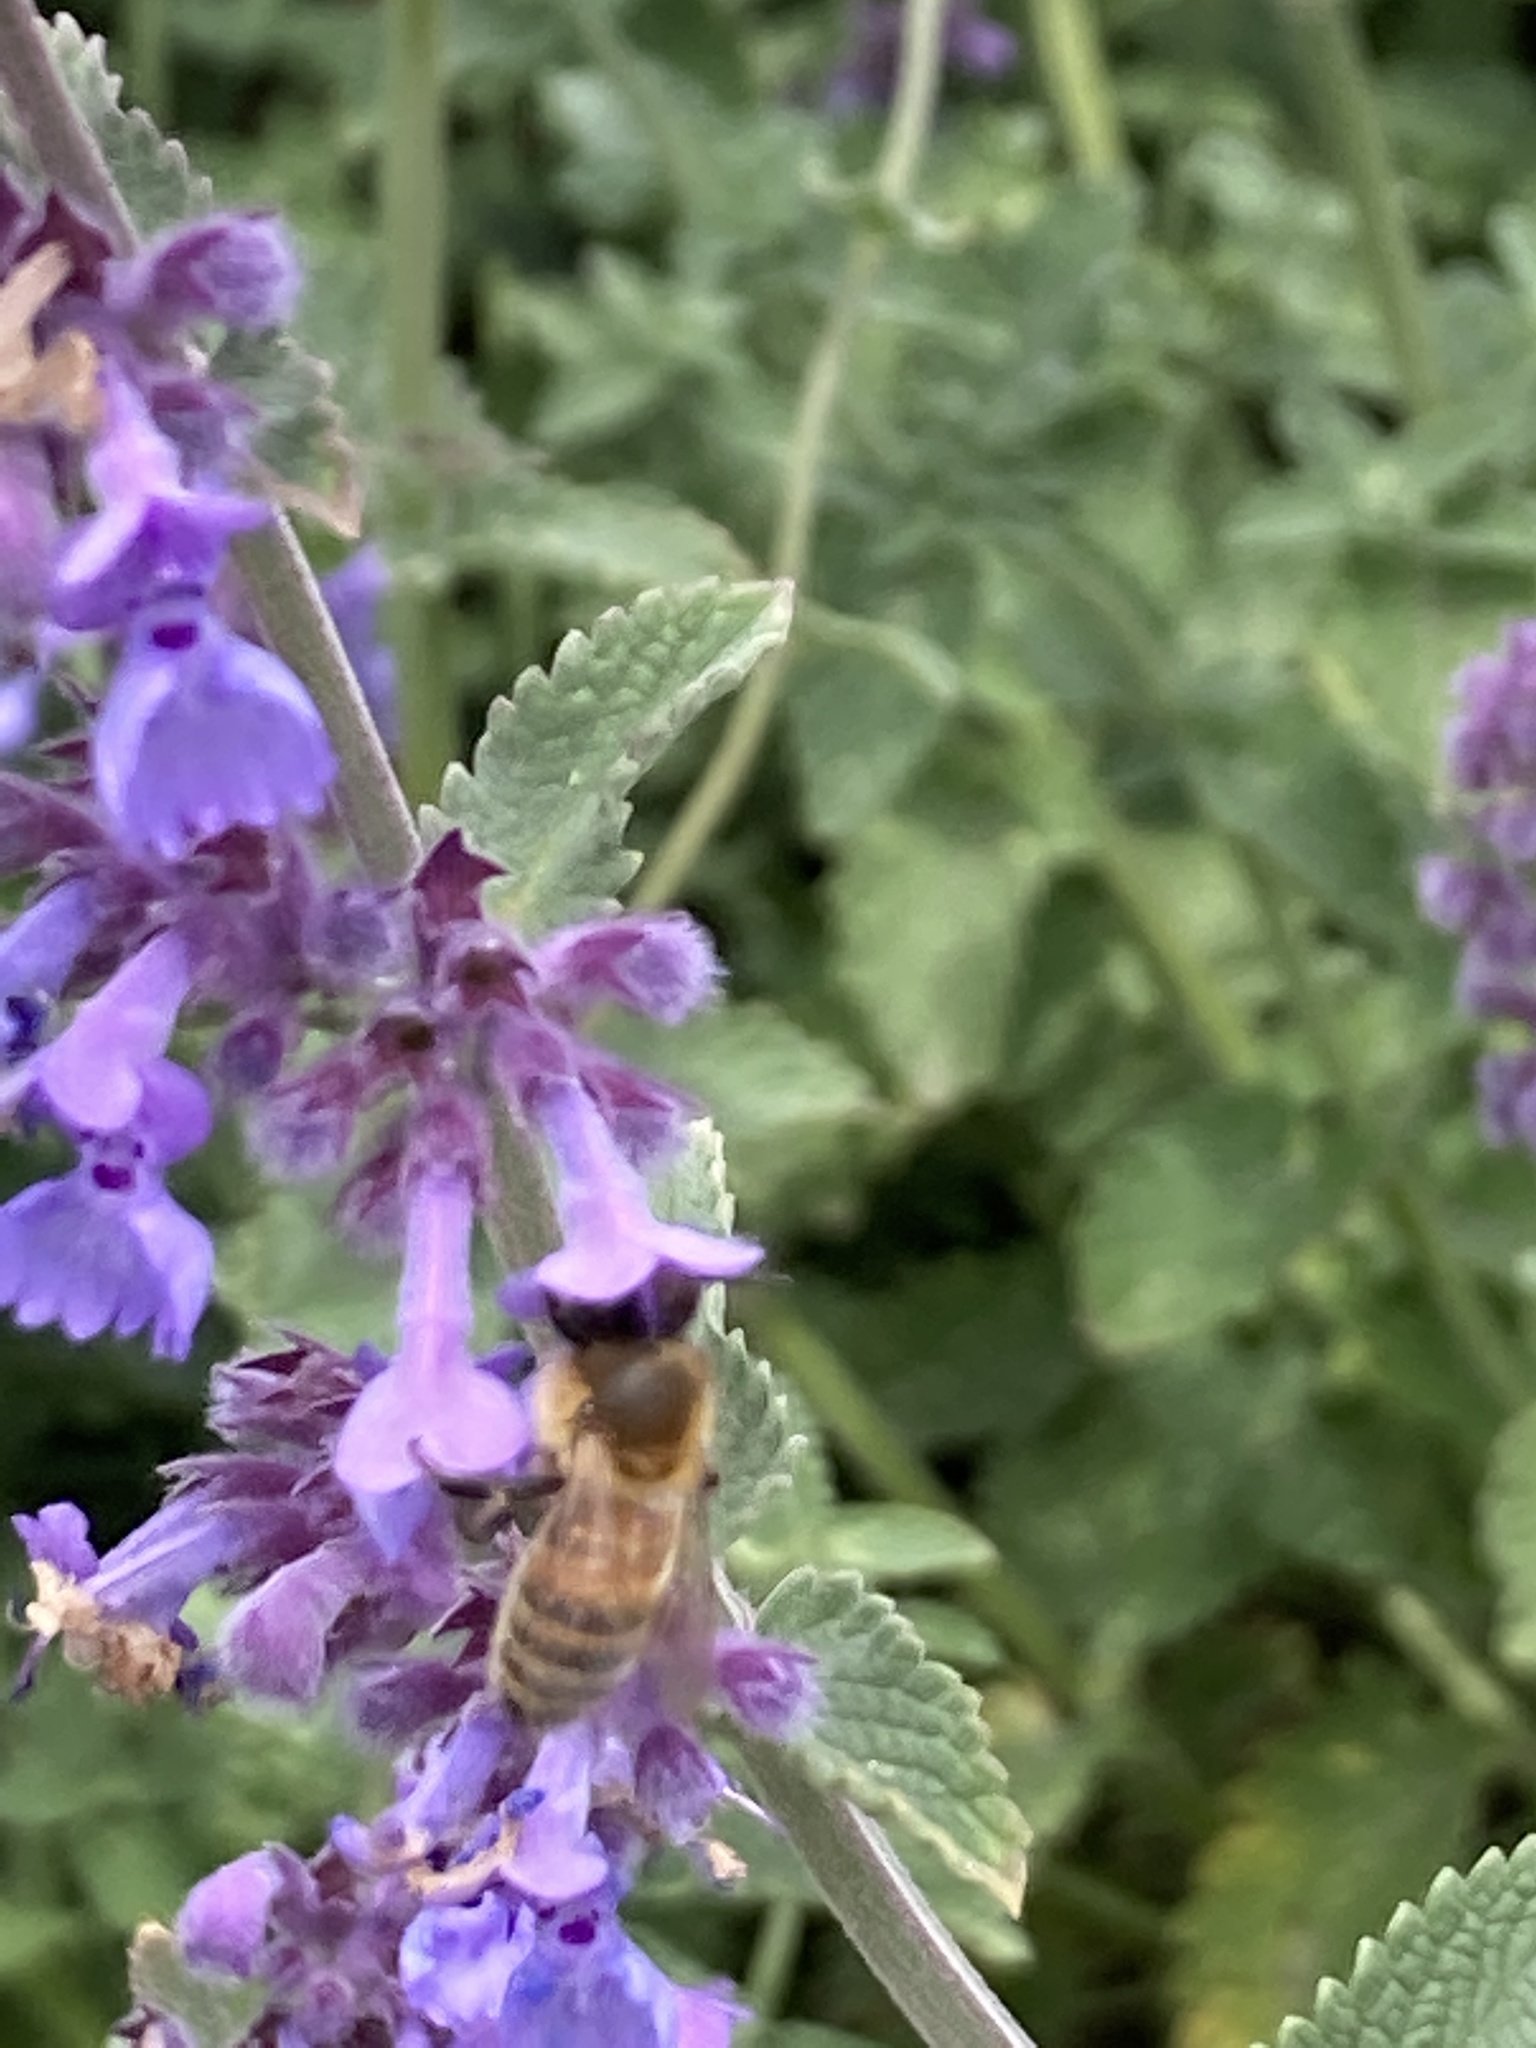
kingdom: Animalia
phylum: Arthropoda
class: Insecta
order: Hymenoptera
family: Apidae
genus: Apis
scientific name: Apis mellifera
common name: Honey bee
